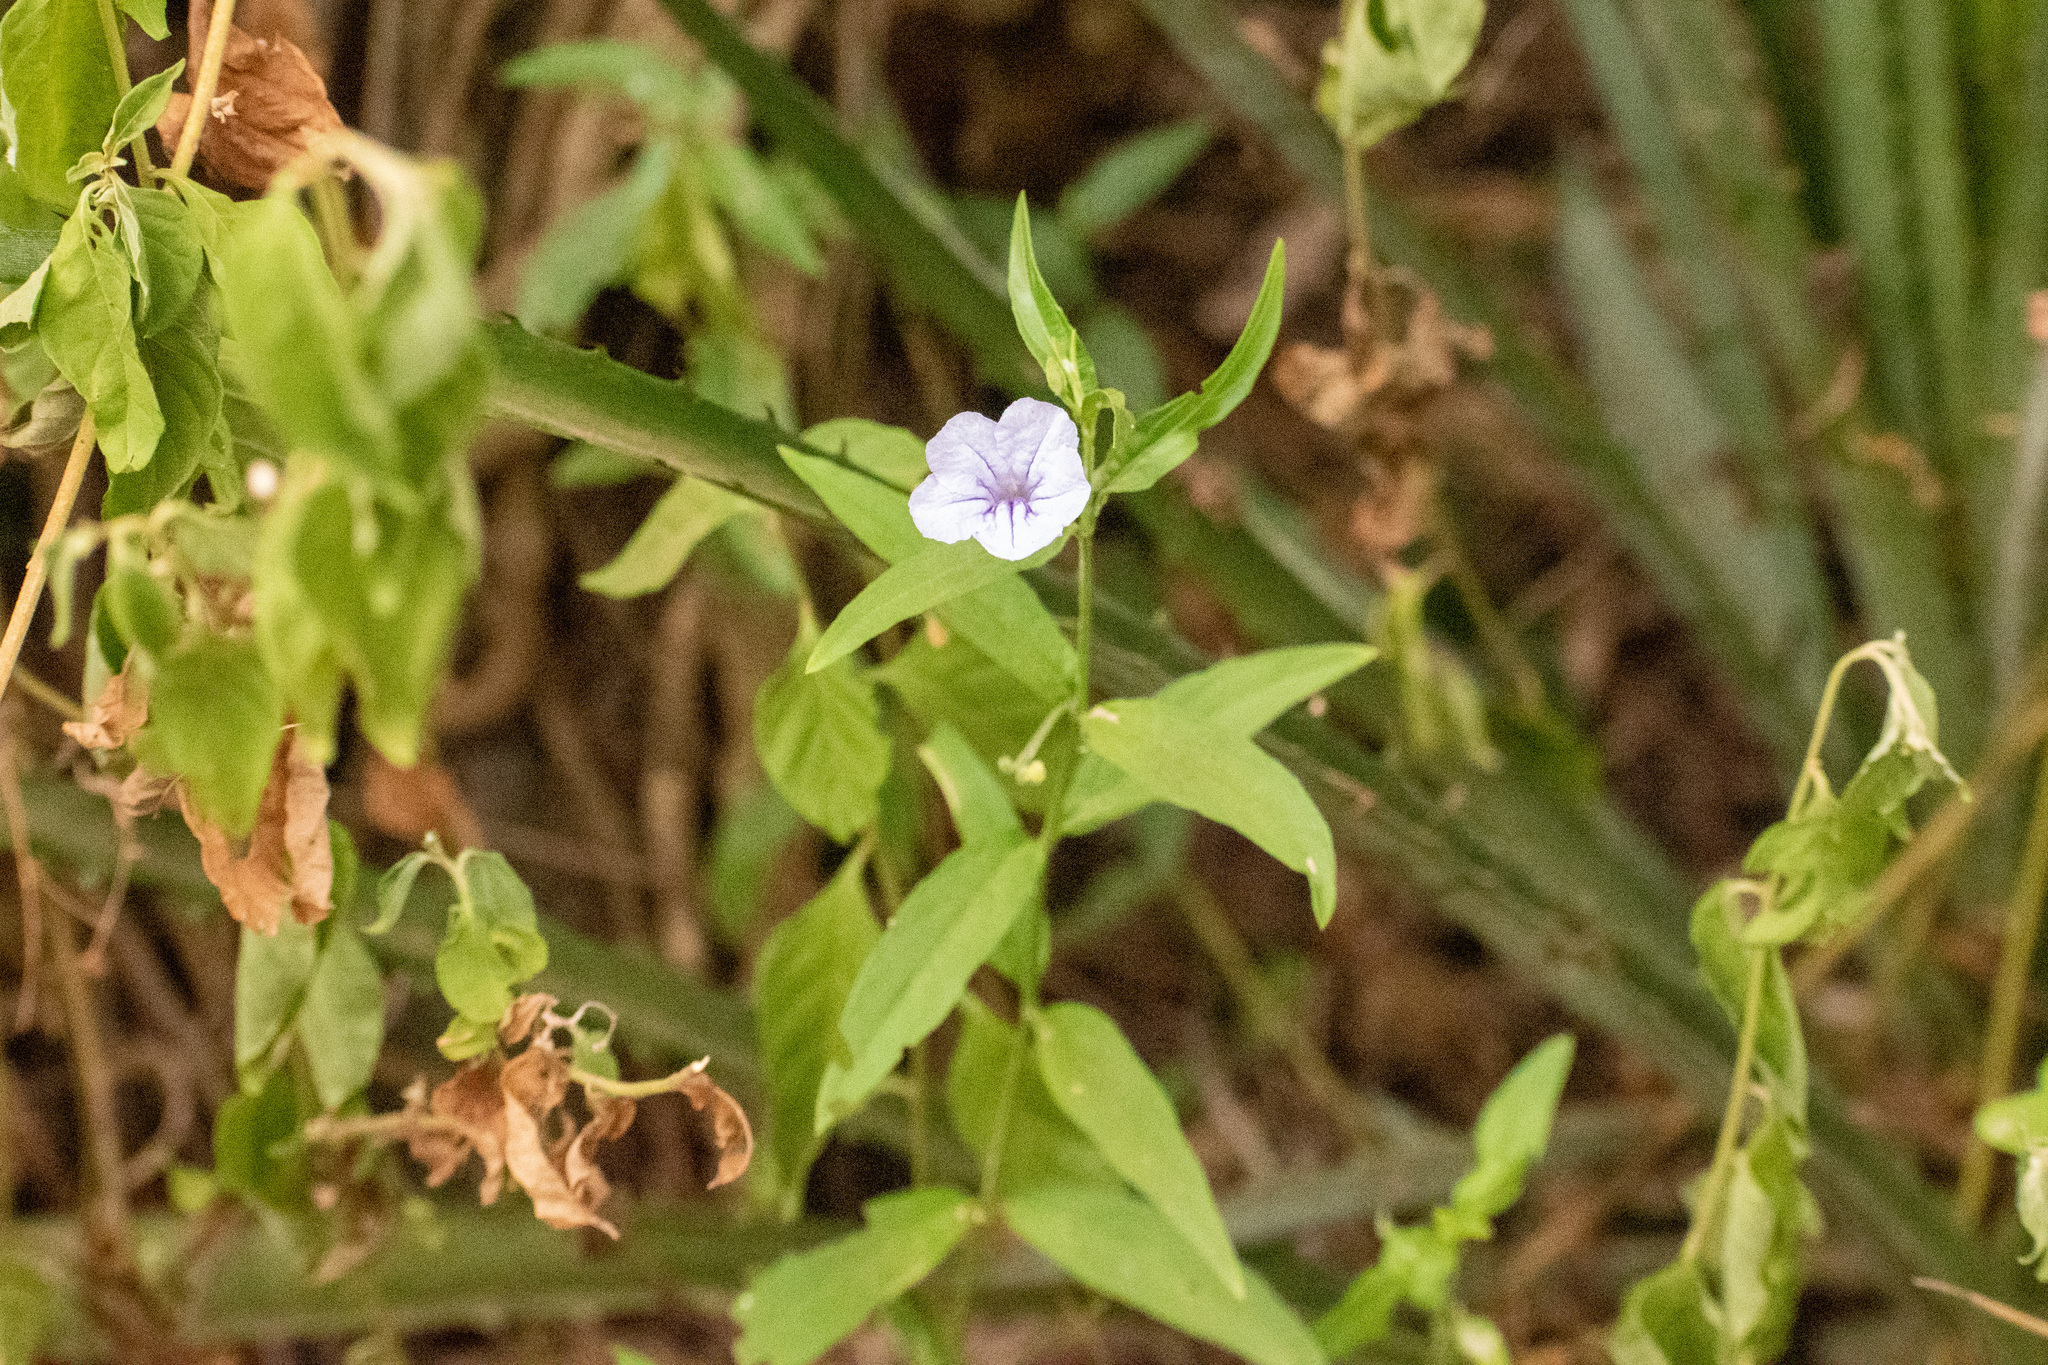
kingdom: Plantae
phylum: Tracheophyta
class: Magnoliopsida
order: Lamiales
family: Acanthaceae
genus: Ruellia
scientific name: Ruellia erythropus
